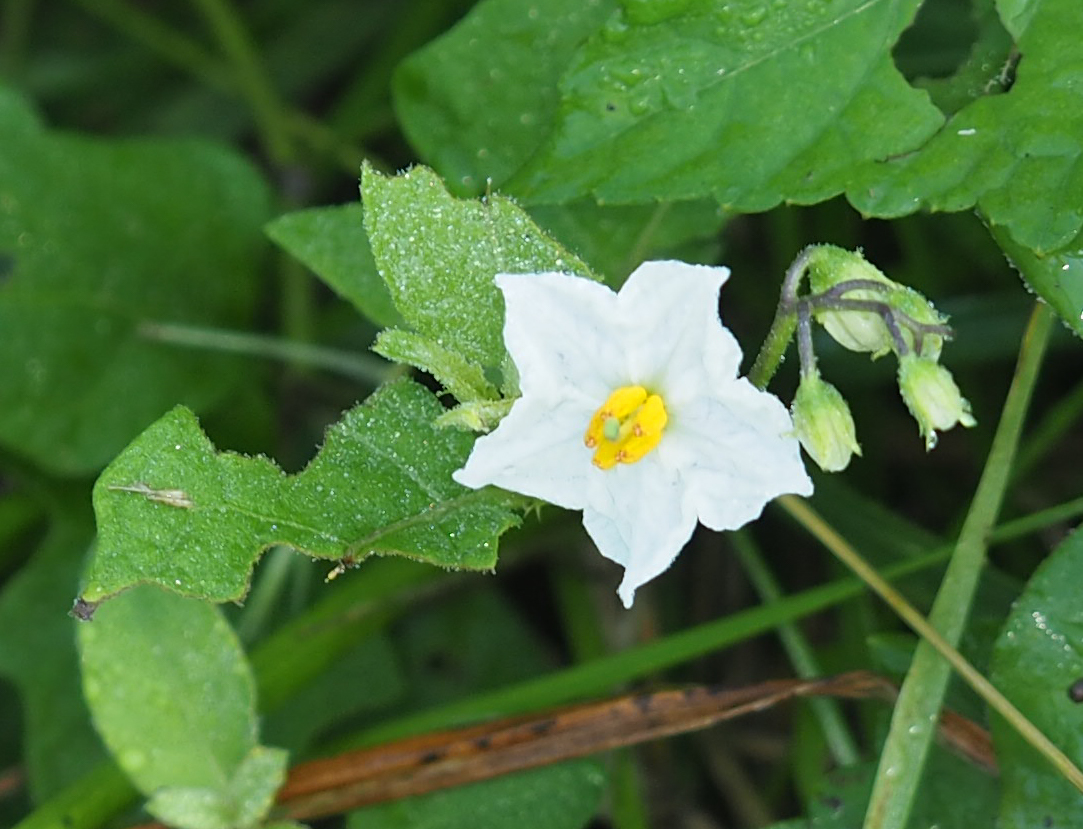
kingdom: Plantae
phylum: Tracheophyta
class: Magnoliopsida
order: Solanales
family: Solanaceae
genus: Solanum
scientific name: Solanum carolinense
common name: Horse-nettle
